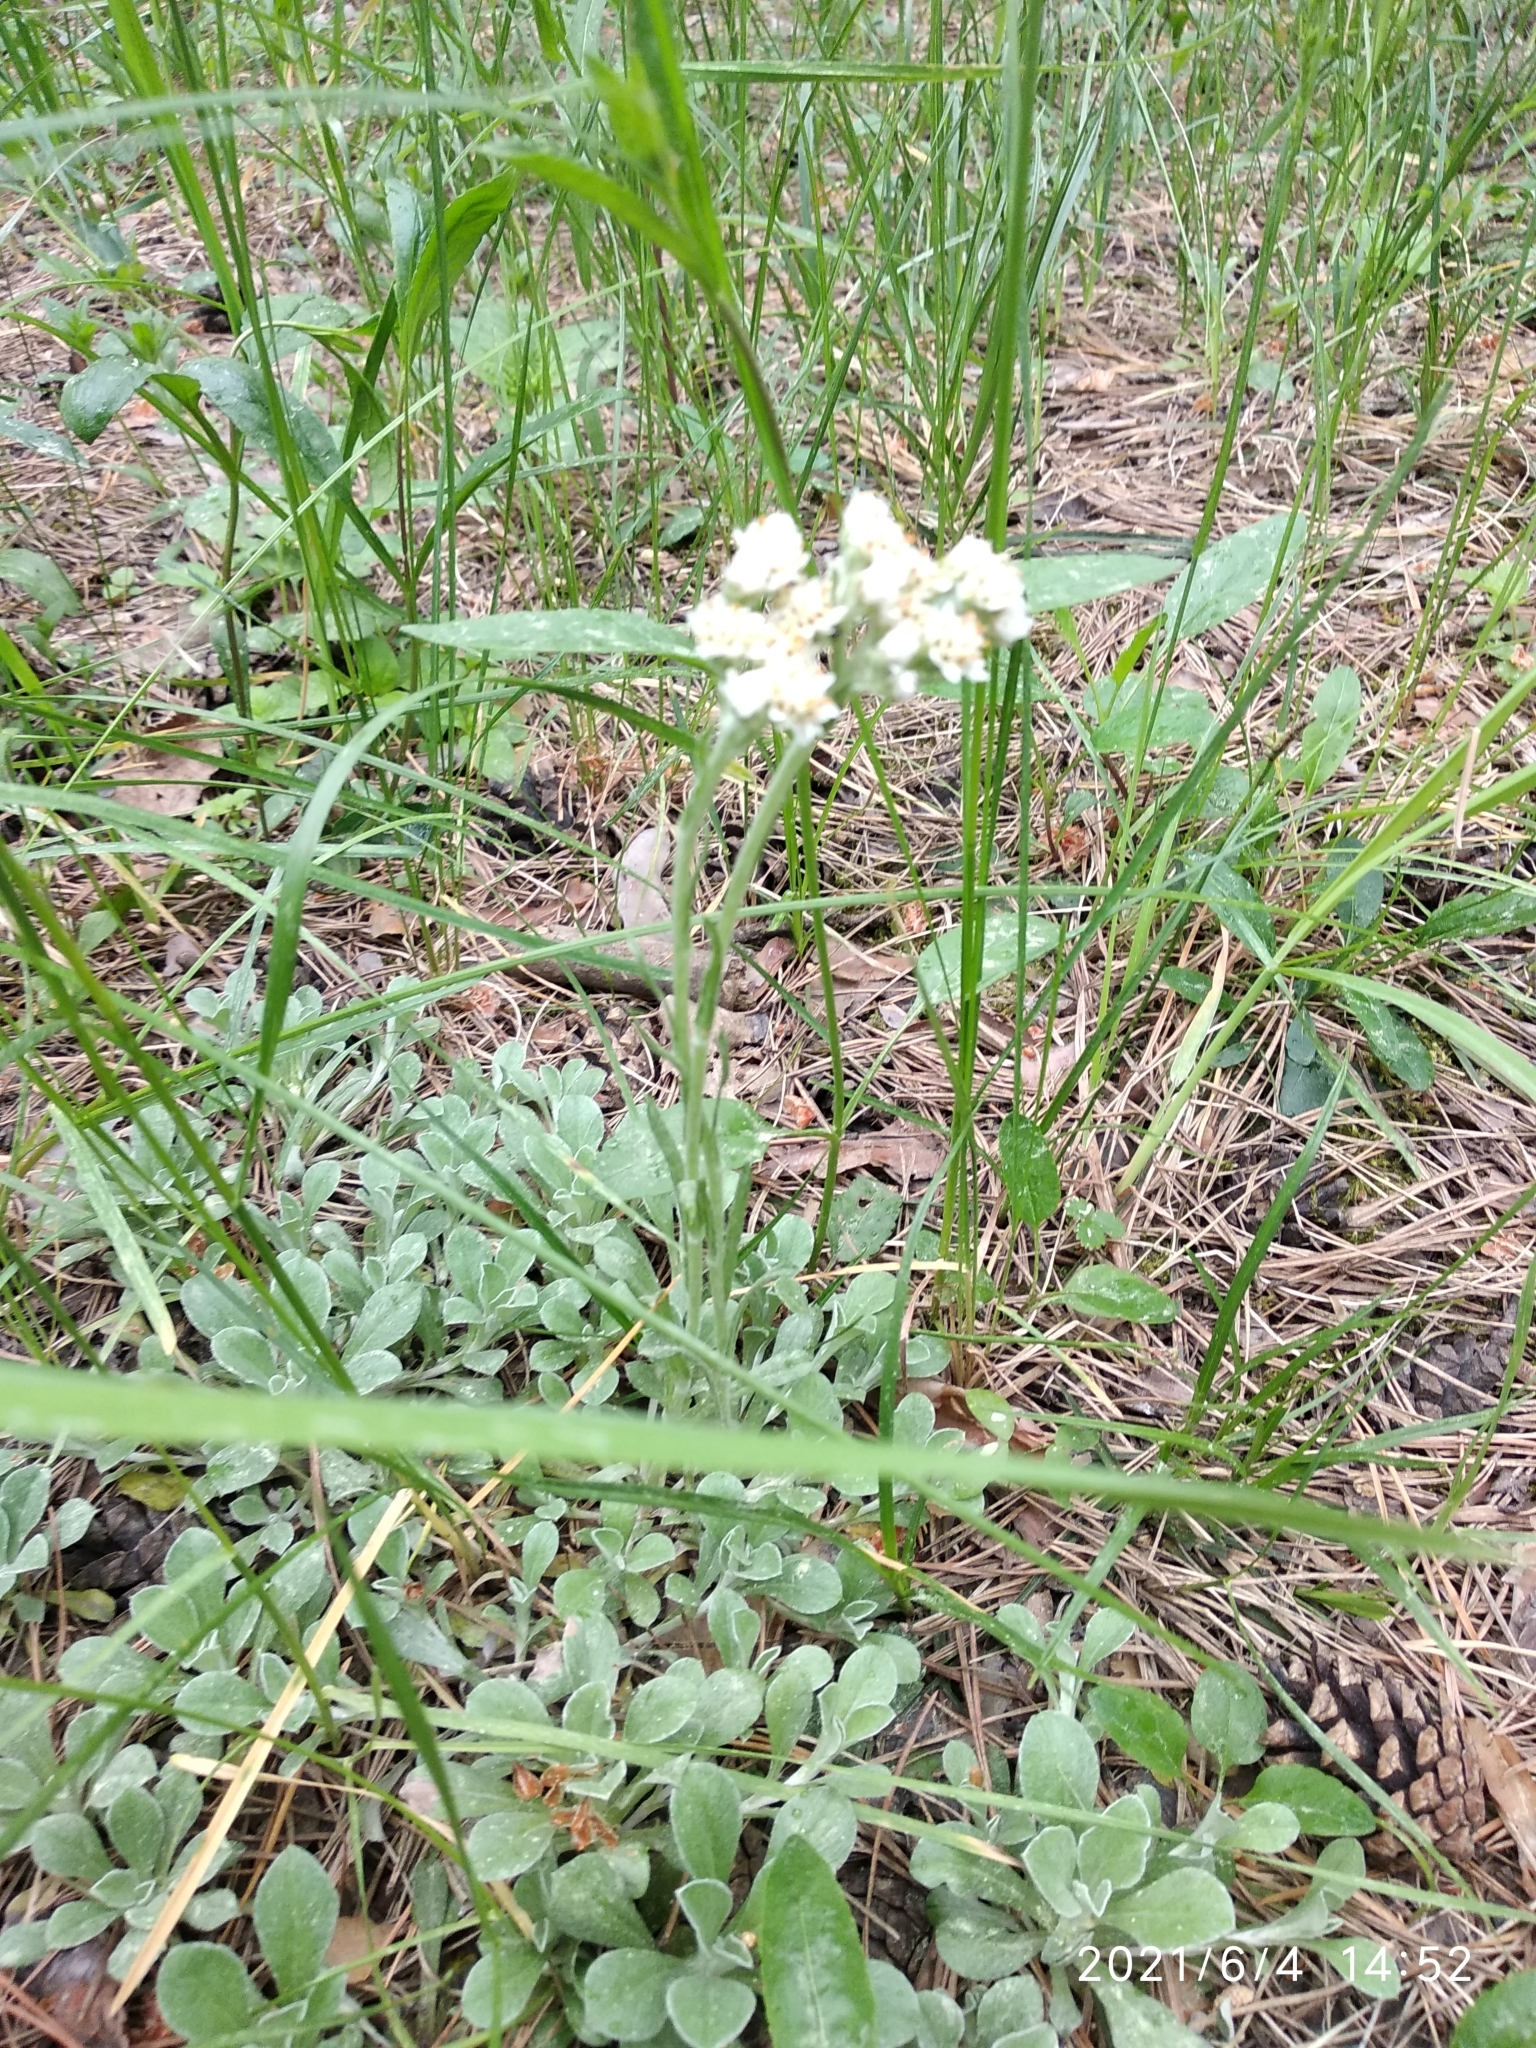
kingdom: Plantae
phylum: Tracheophyta
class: Magnoliopsida
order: Asterales
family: Asteraceae
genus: Antennaria
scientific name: Antennaria dioica
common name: Mountain everlasting
